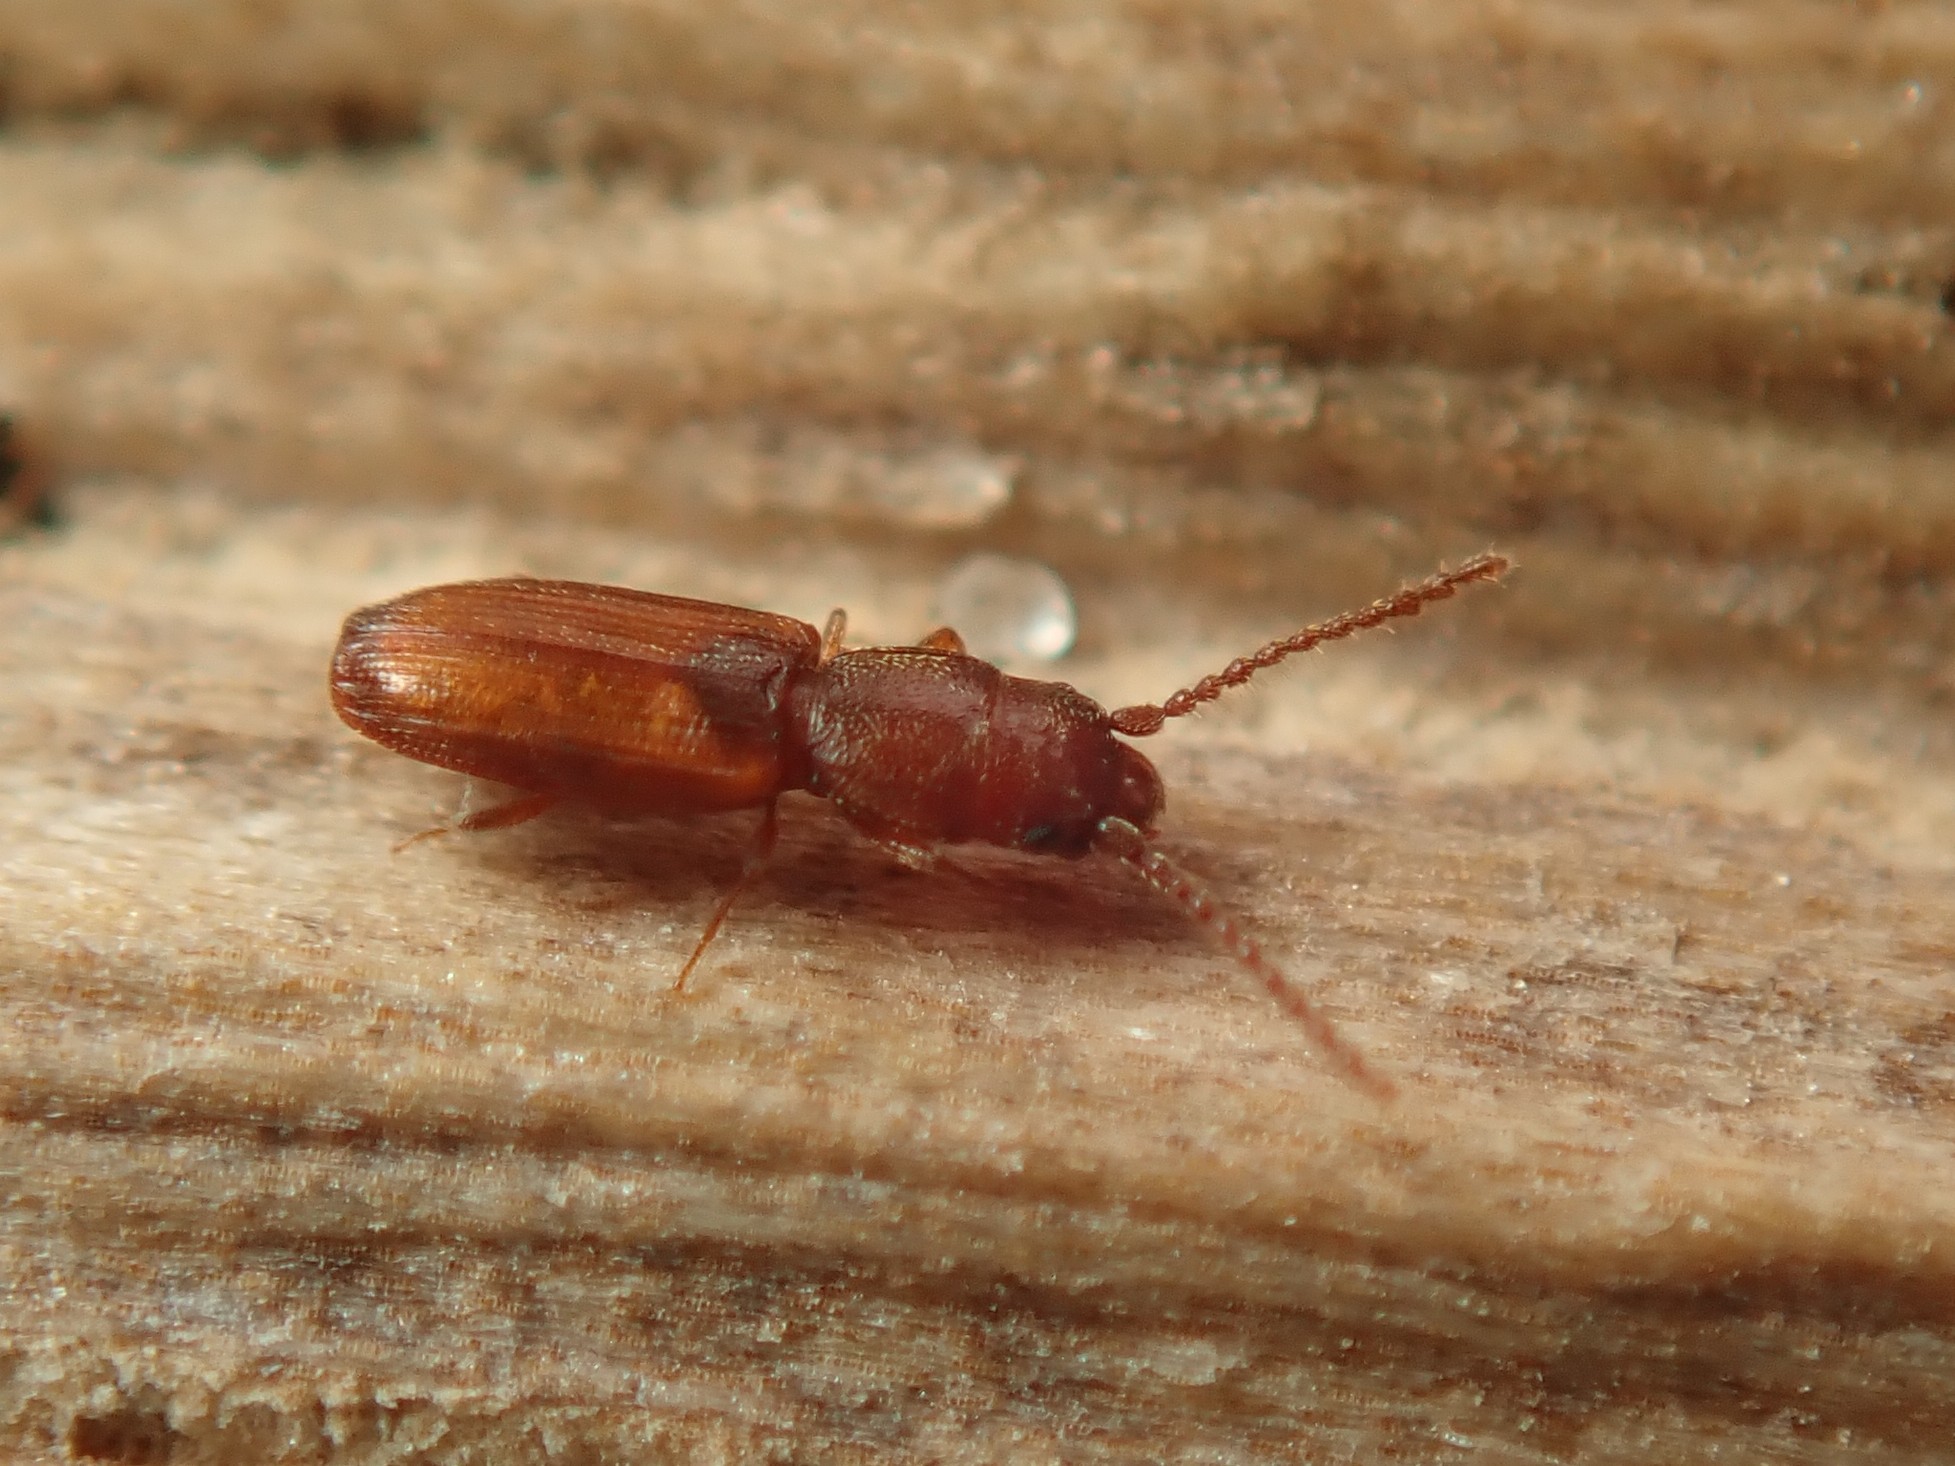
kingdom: Animalia
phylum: Arthropoda
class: Insecta
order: Coleoptera
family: Laemophloeidae
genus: Cryptolestes
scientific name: Cryptolestes duplicatus
